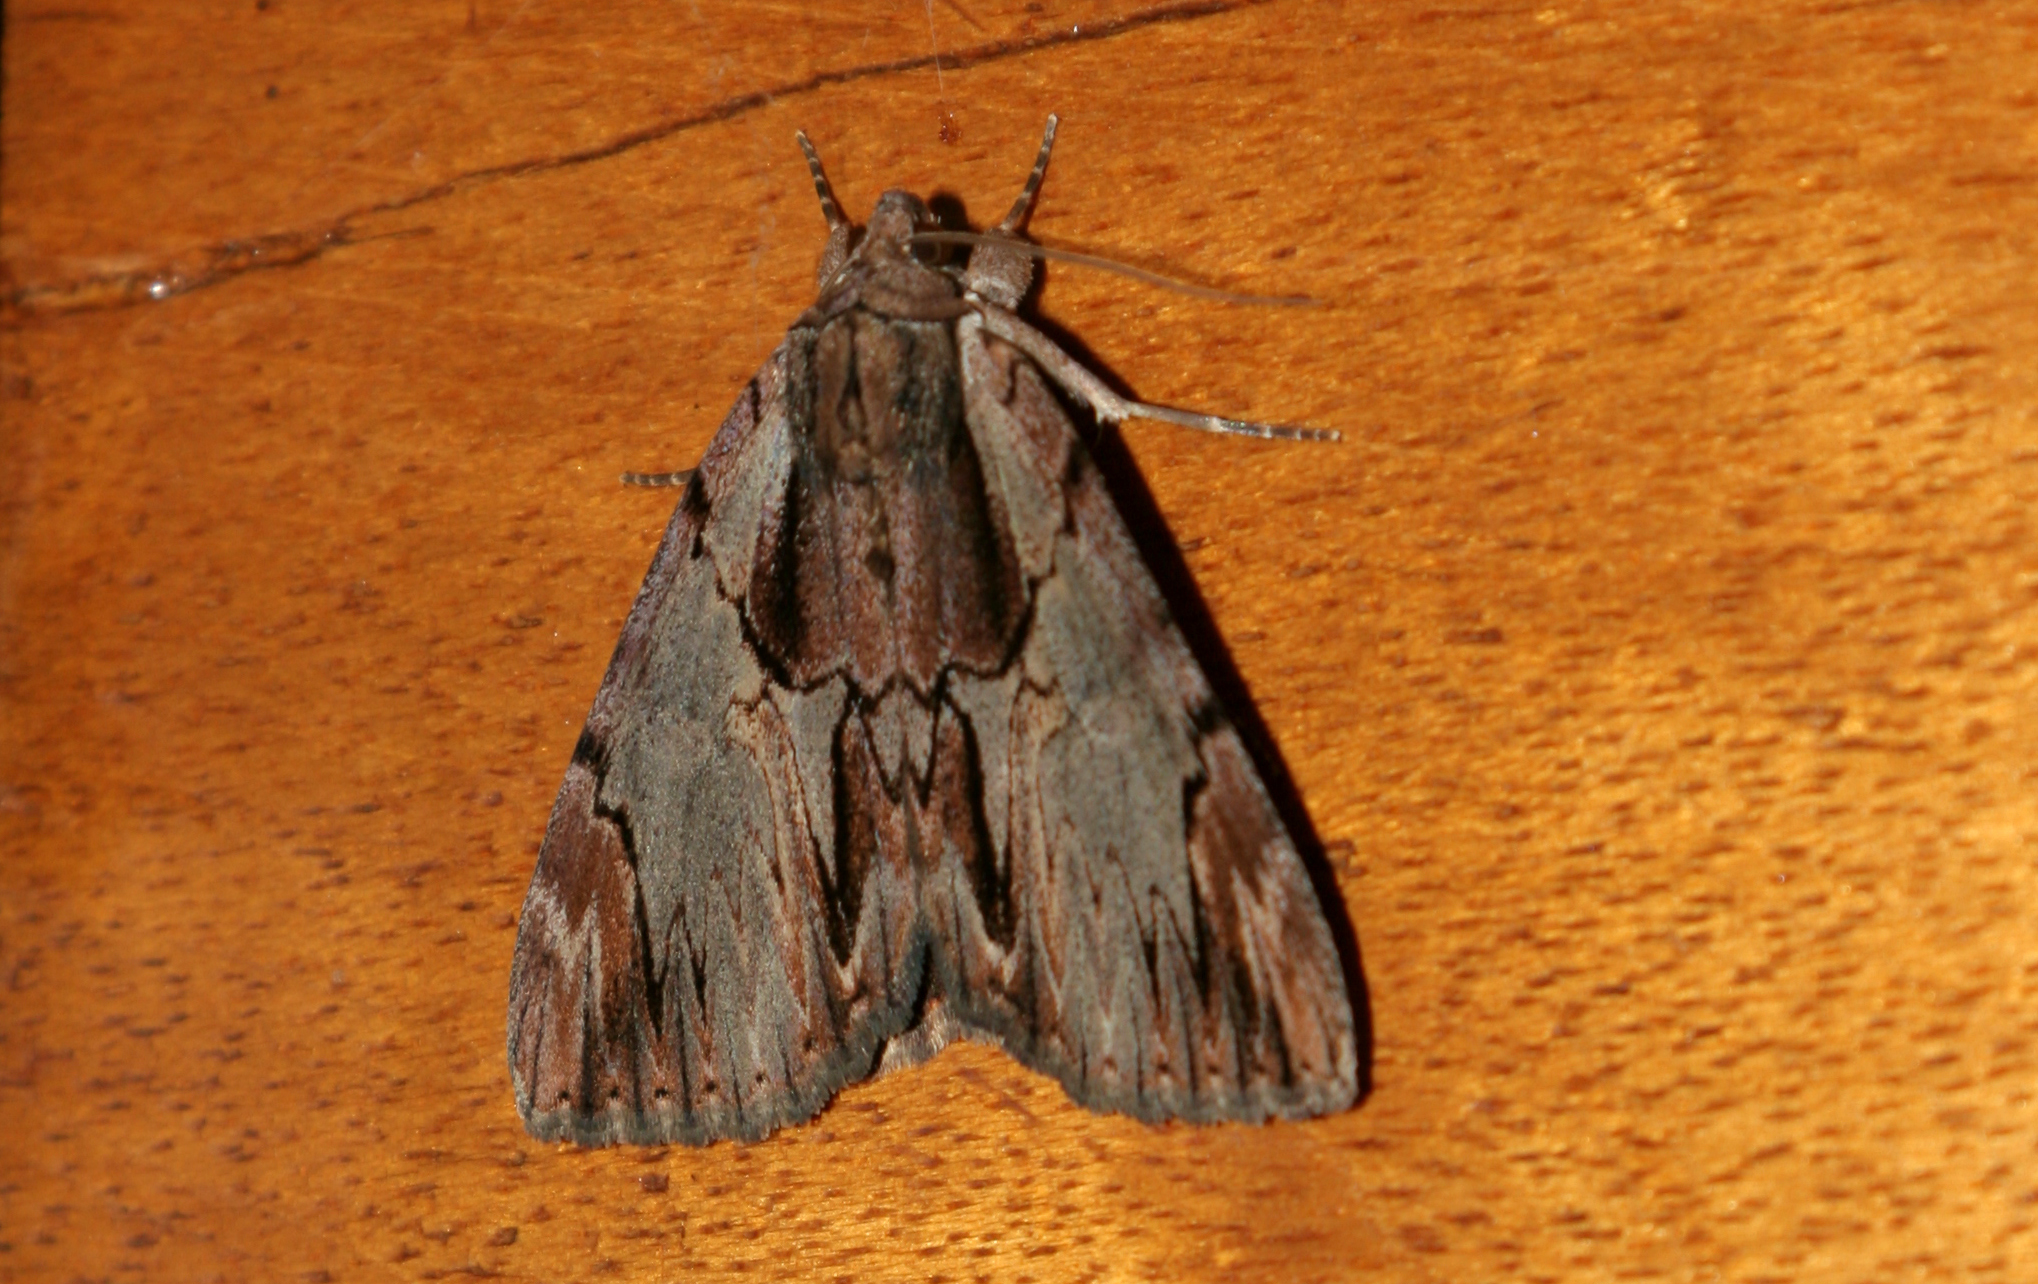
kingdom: Animalia
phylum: Arthropoda
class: Insecta
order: Lepidoptera
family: Erebidae
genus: Catocala
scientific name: Catocala ultronia
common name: Ultronia underwing
